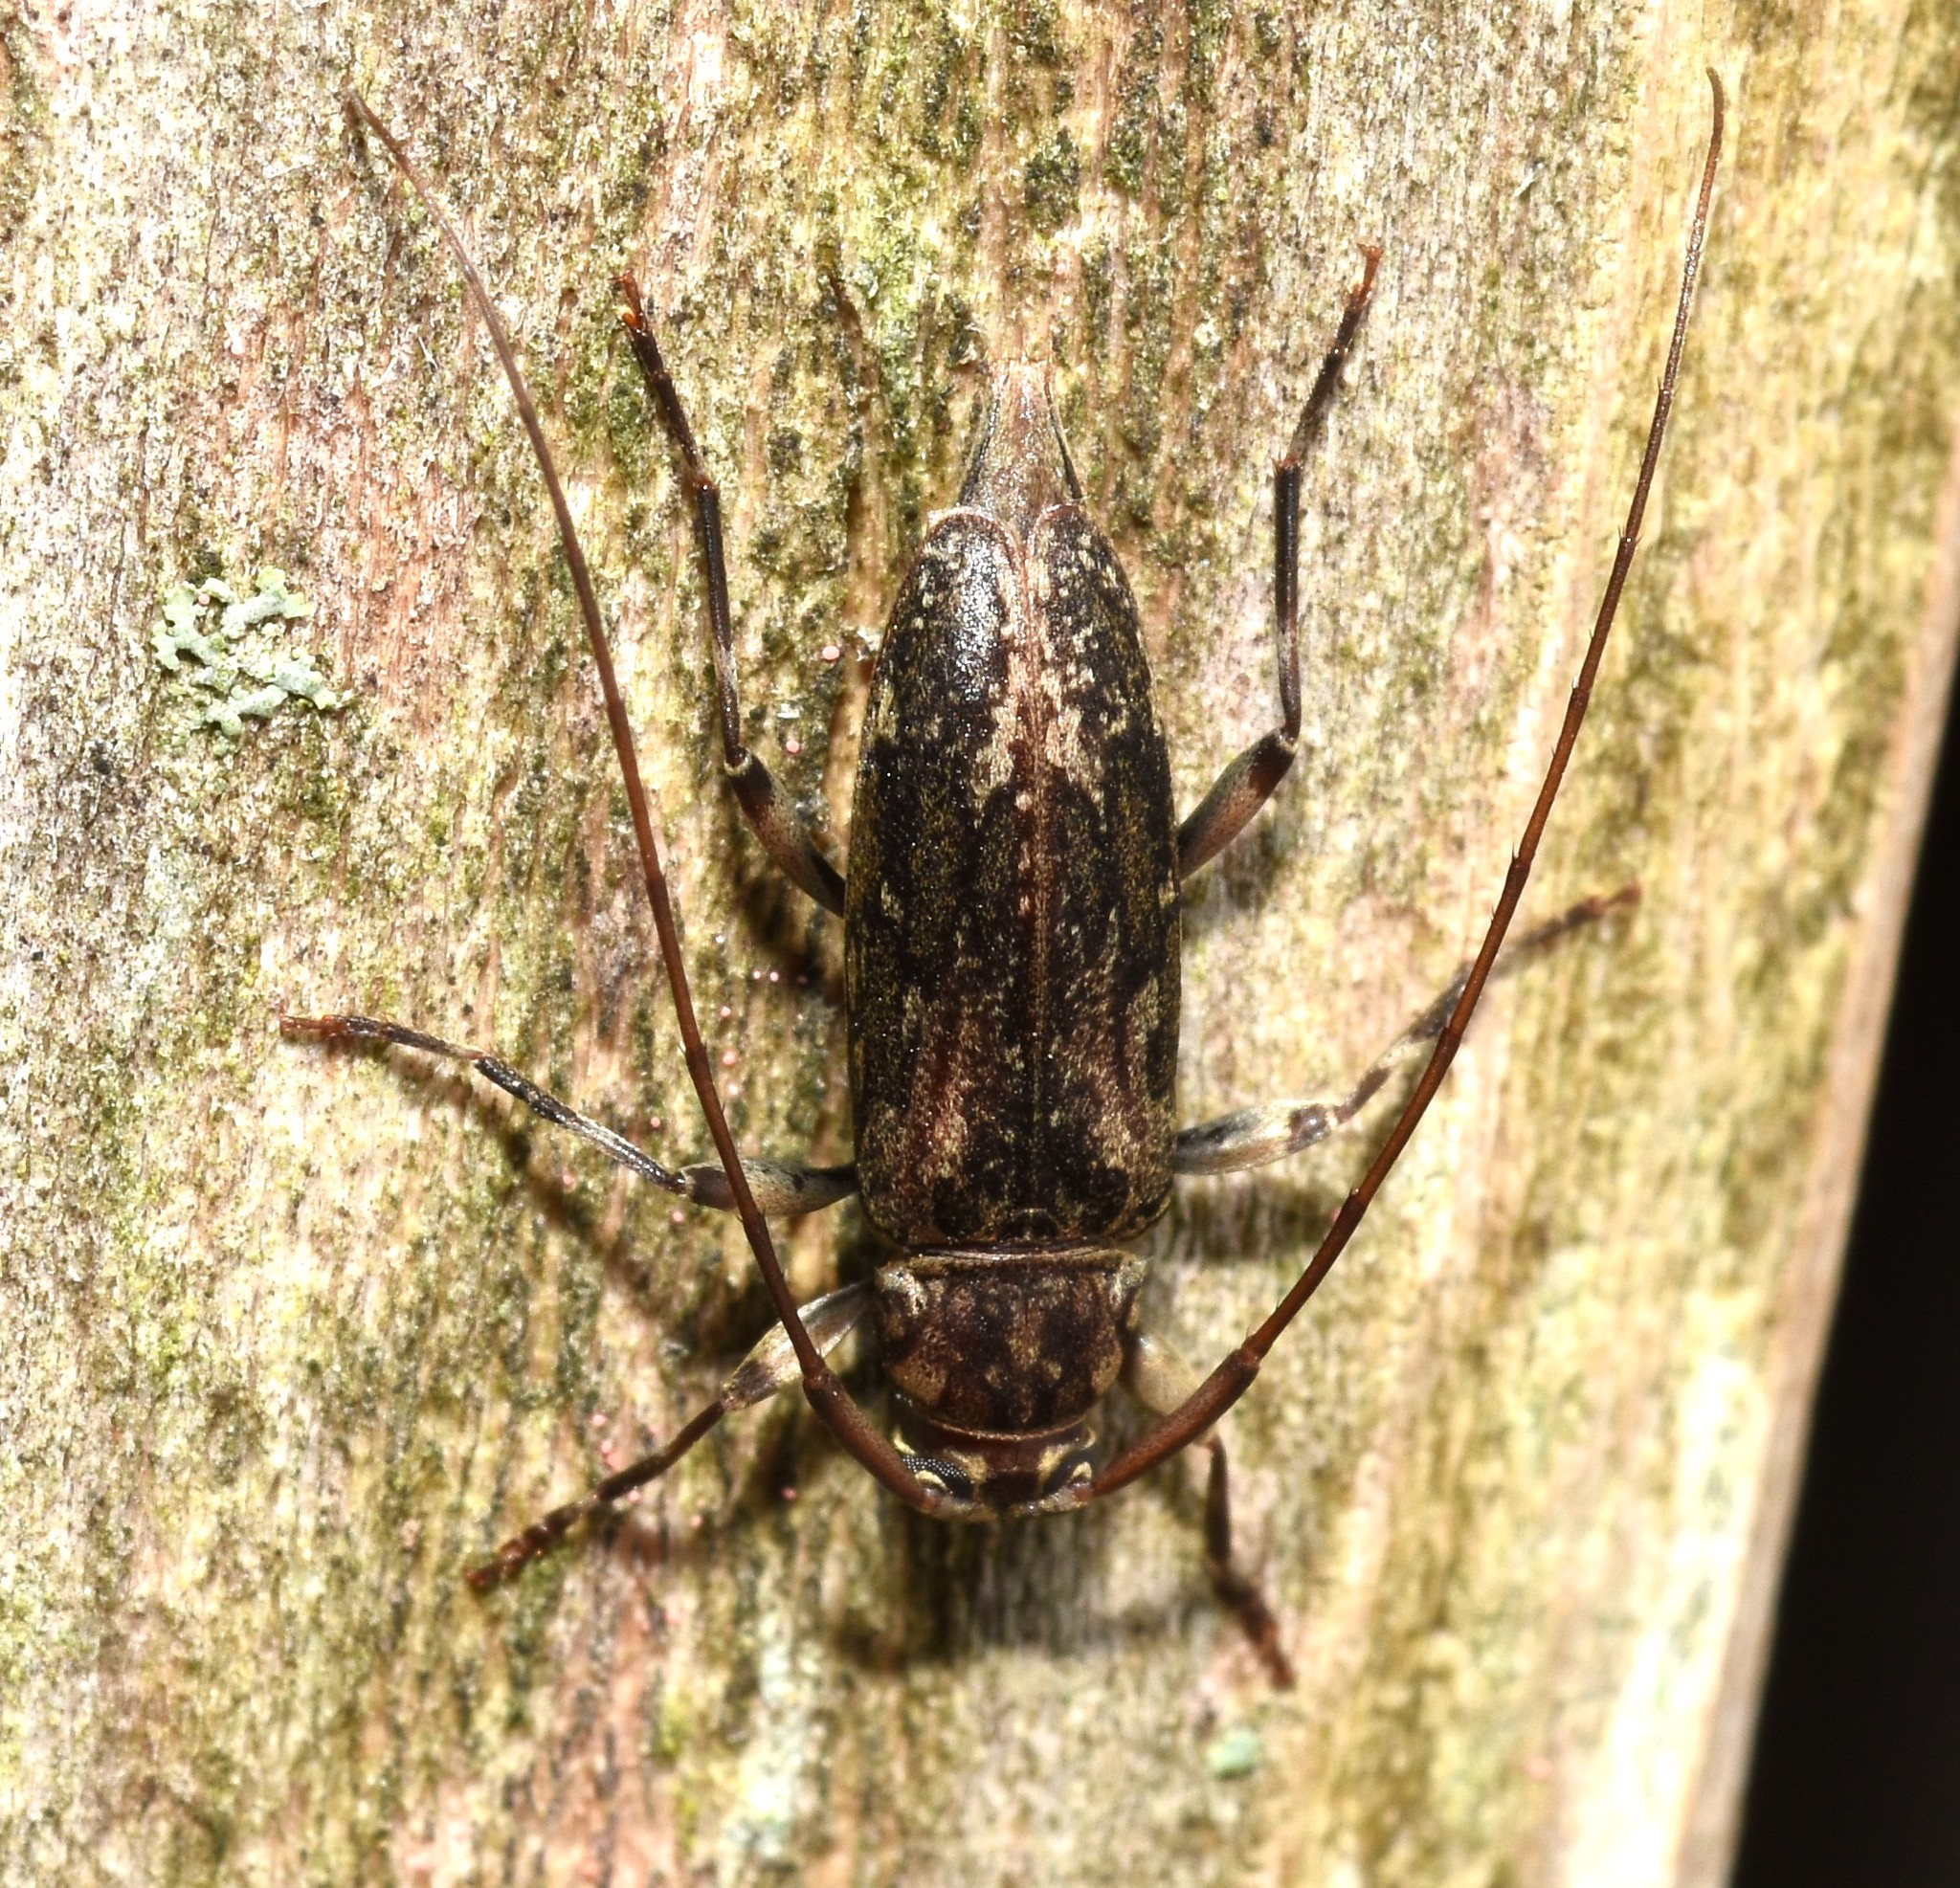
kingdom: Animalia
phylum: Arthropoda
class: Insecta
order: Coleoptera
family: Cerambycidae
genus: Lepturges
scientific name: Lepturges confluens
